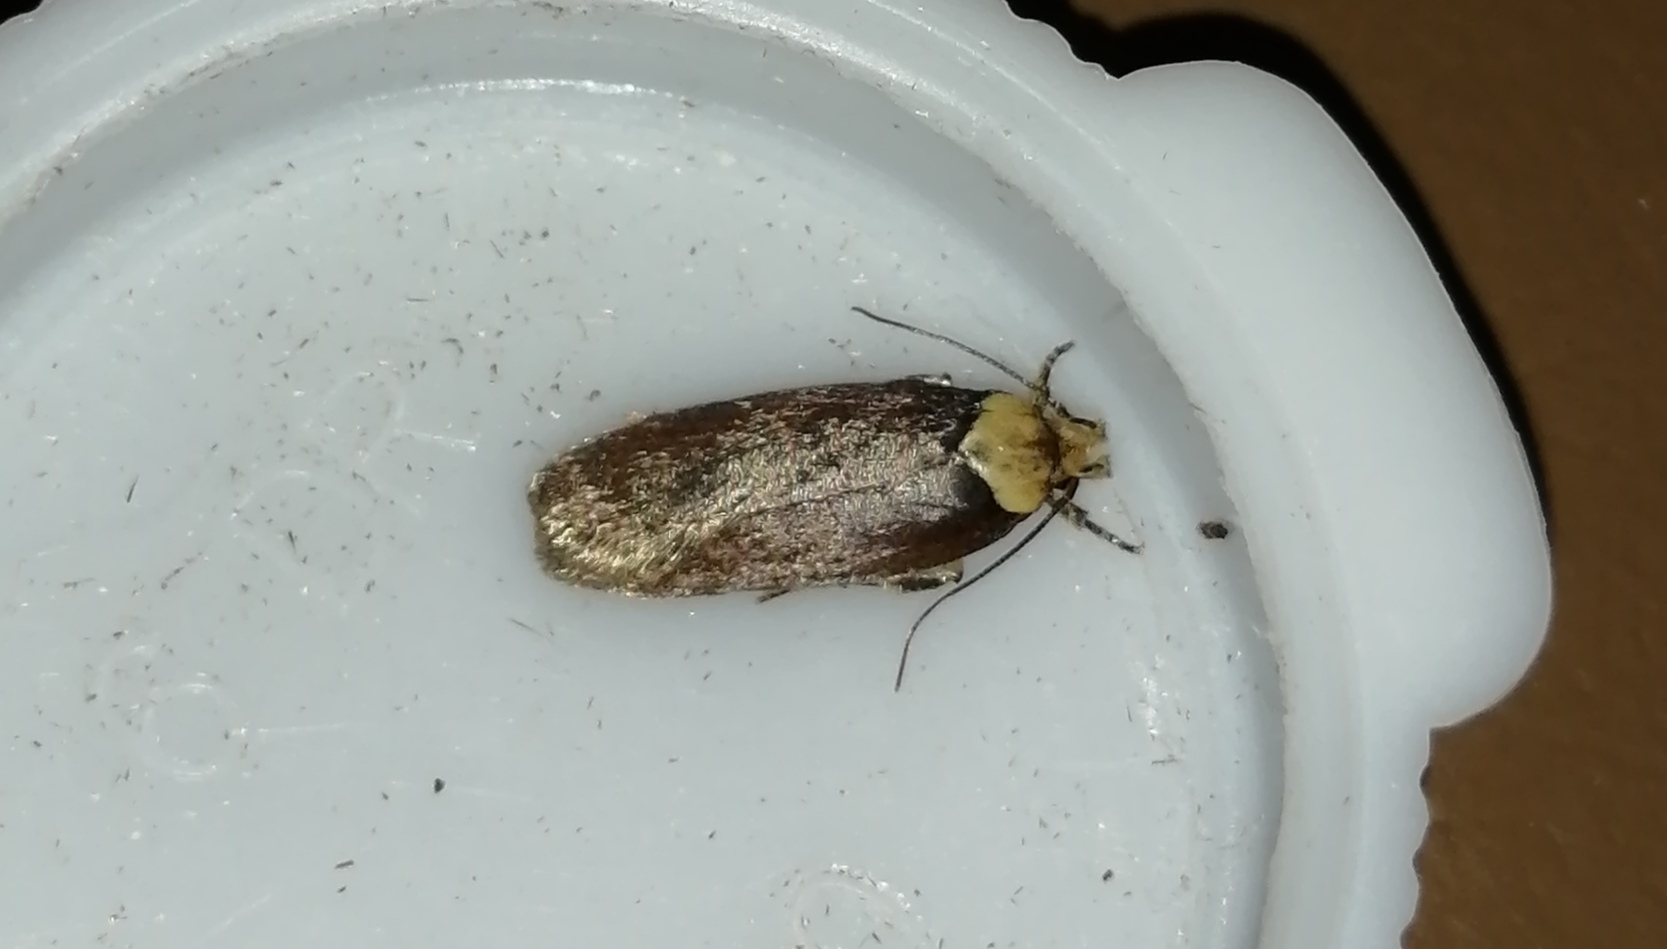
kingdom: Animalia
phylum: Arthropoda
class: Insecta
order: Lepidoptera
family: Depressariidae
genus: Depressaria
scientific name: Depressaria depressana
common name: Lost flat-body
